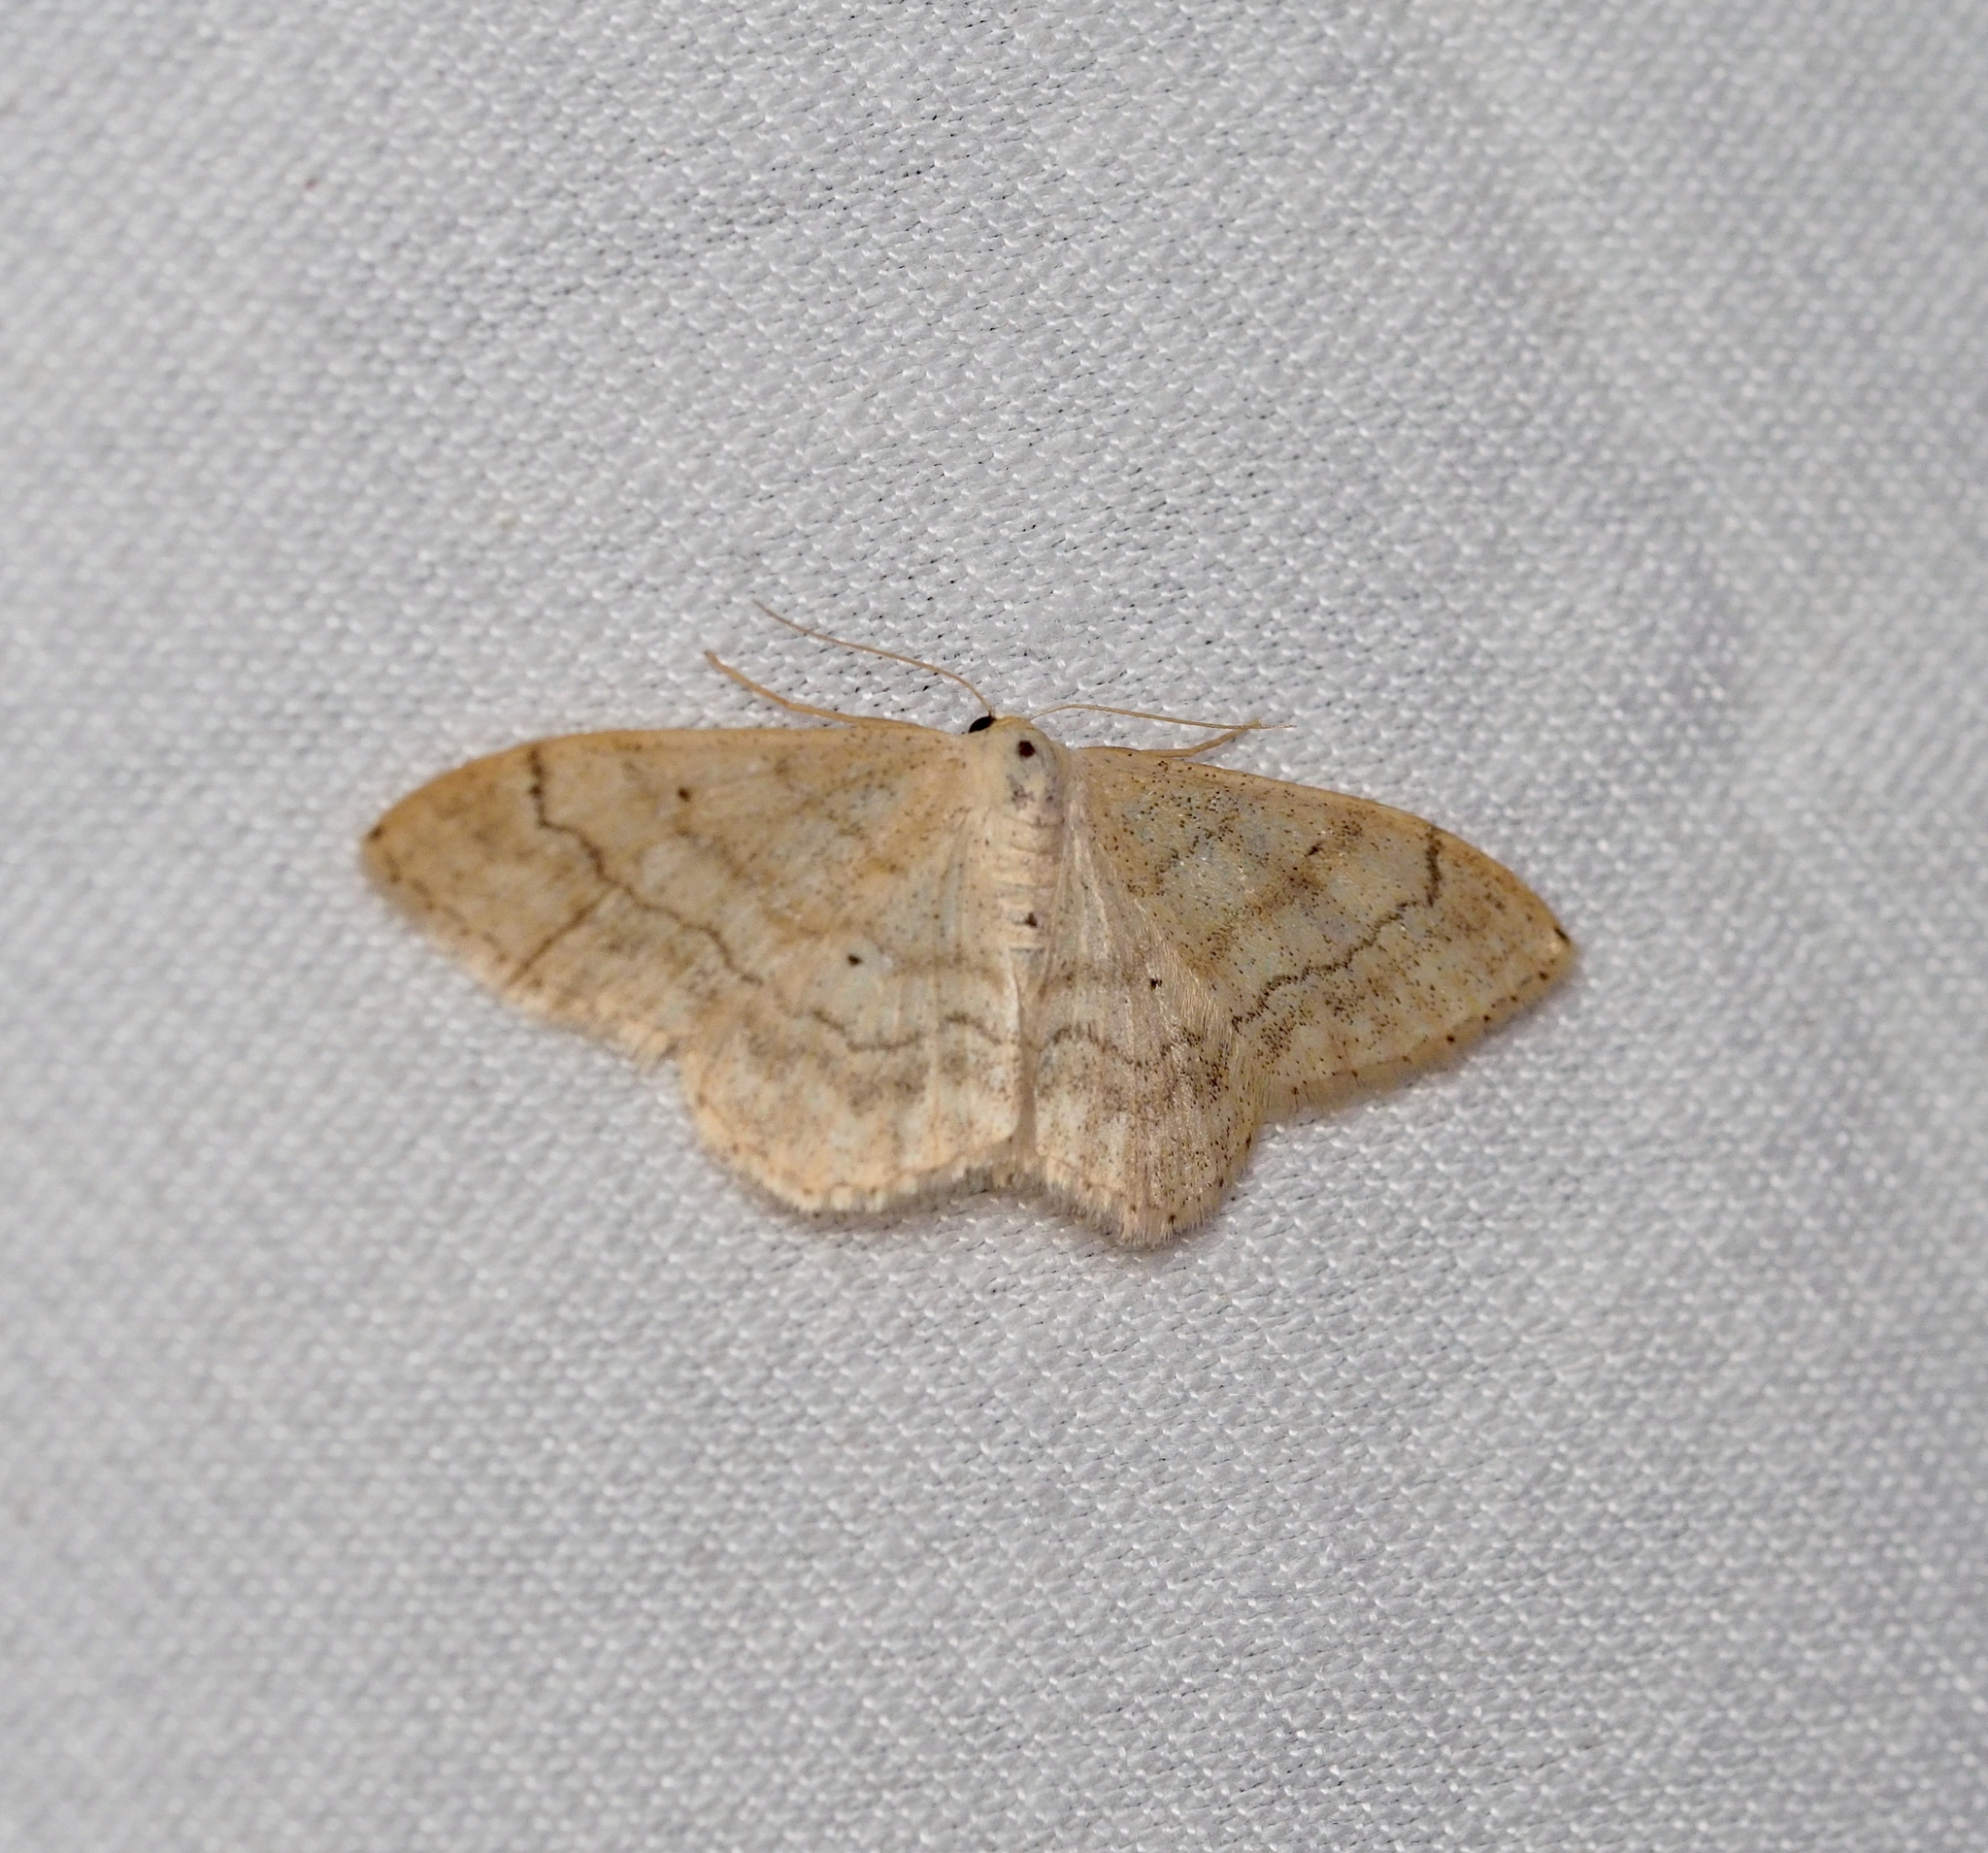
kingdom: Animalia
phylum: Arthropoda
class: Insecta
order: Lepidoptera
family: Geometridae
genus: Idaea
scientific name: Idaea maritimaria
